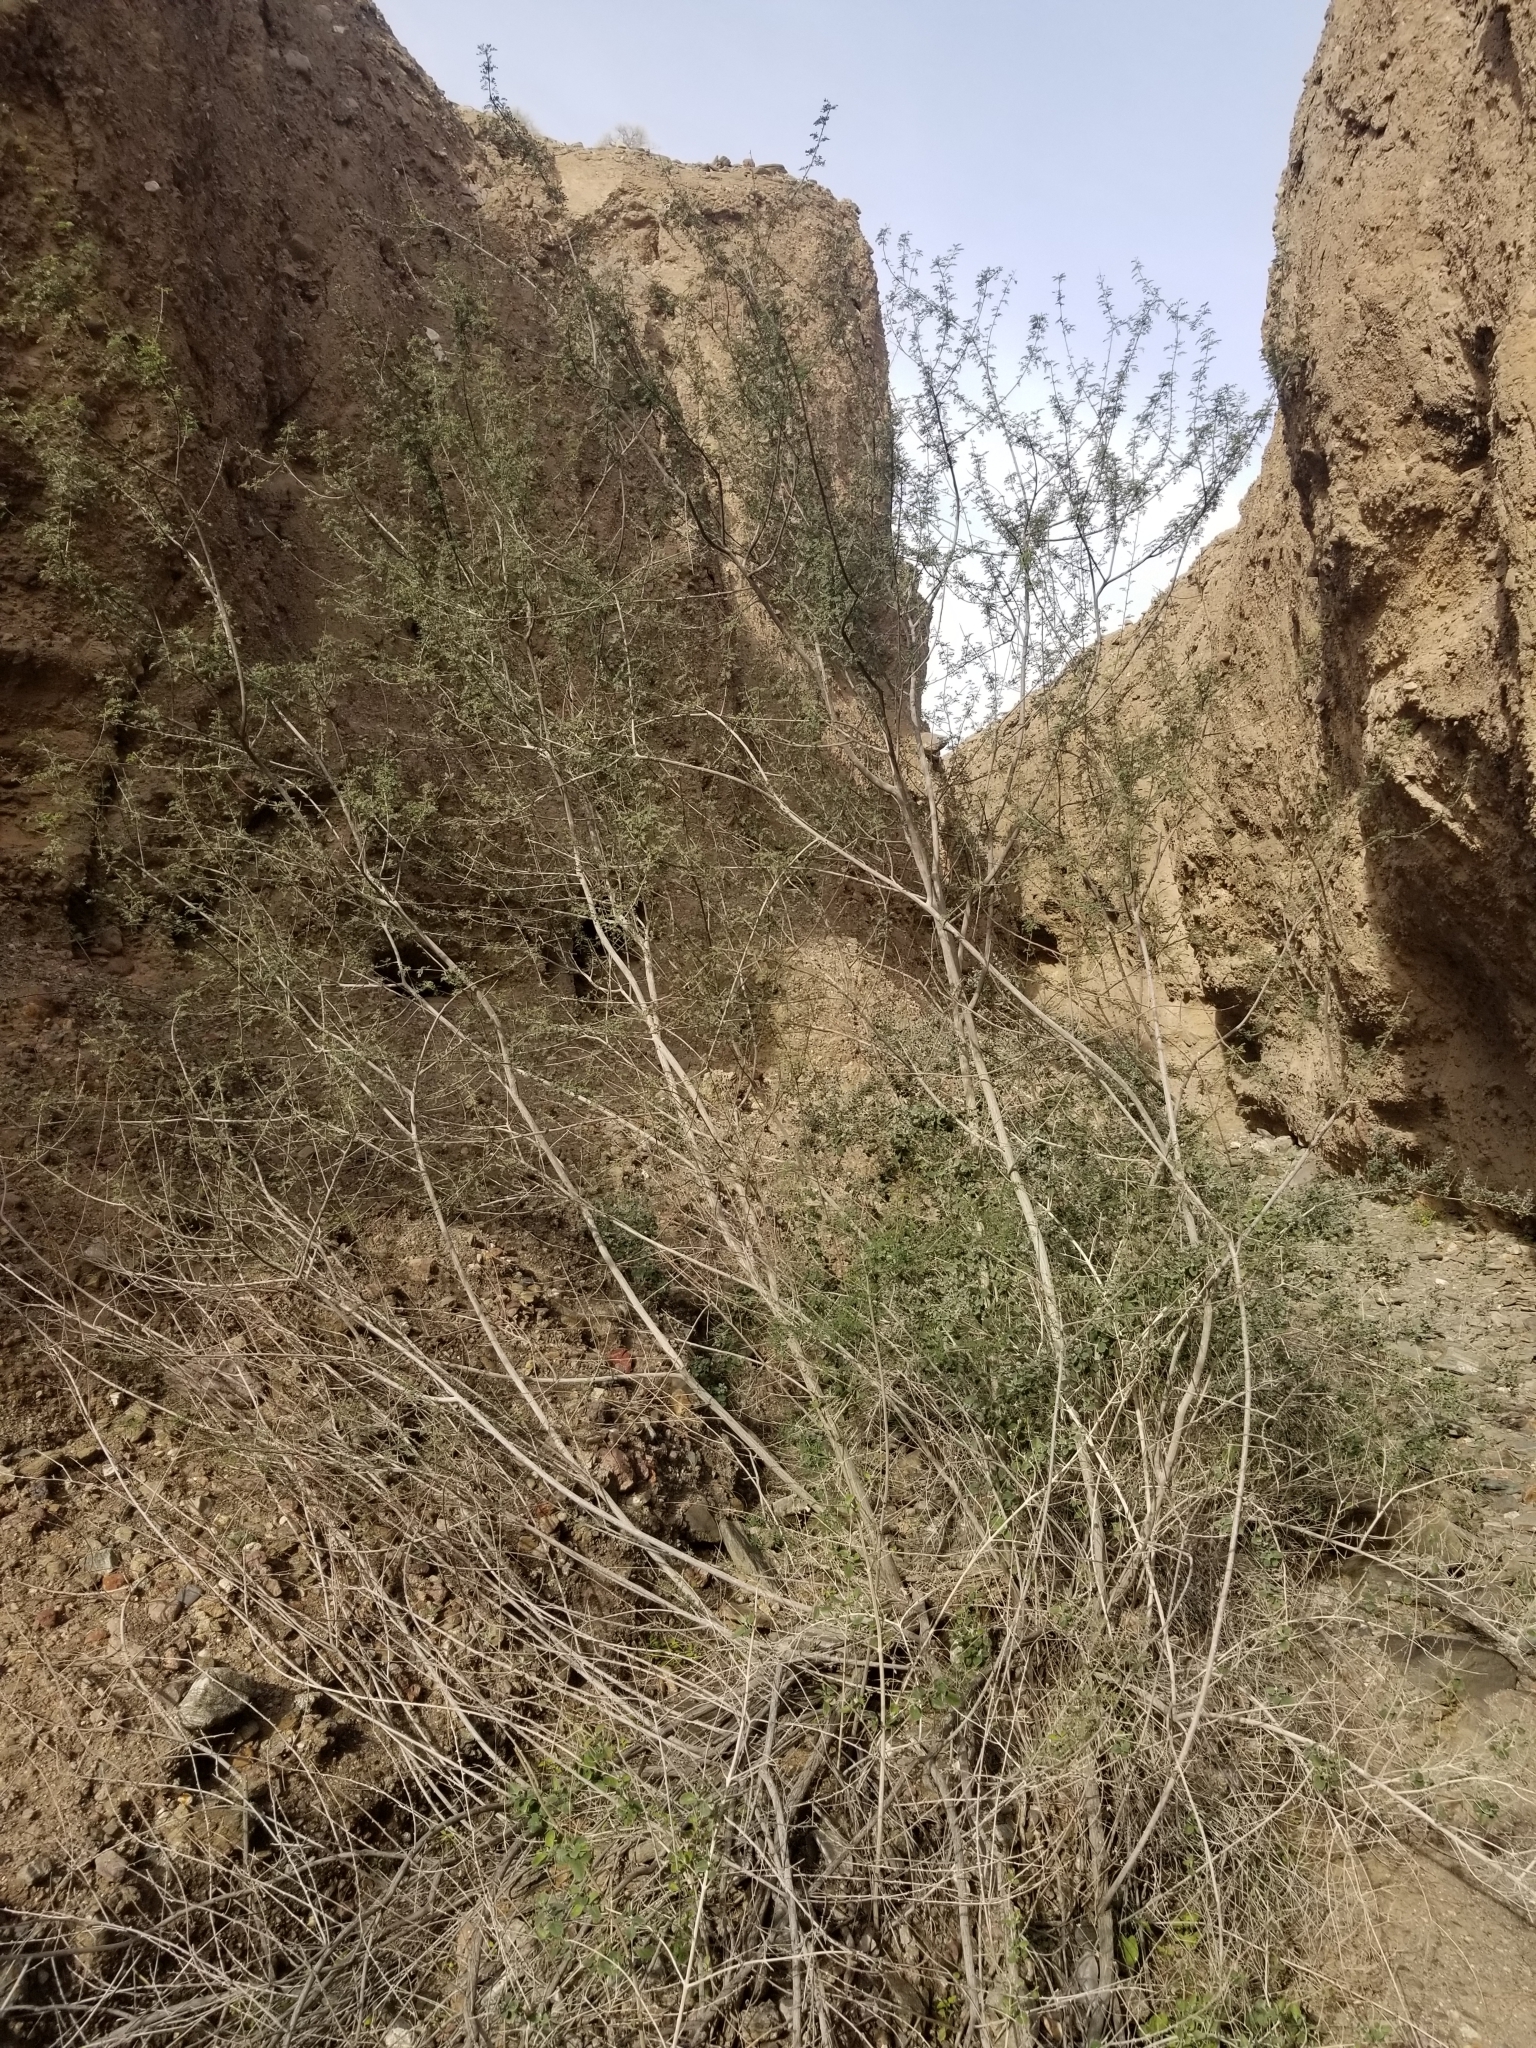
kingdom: Plantae
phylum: Tracheophyta
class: Magnoliopsida
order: Fabales
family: Fabaceae
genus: Senegalia
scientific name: Senegalia greggii
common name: Texas-mimosa
